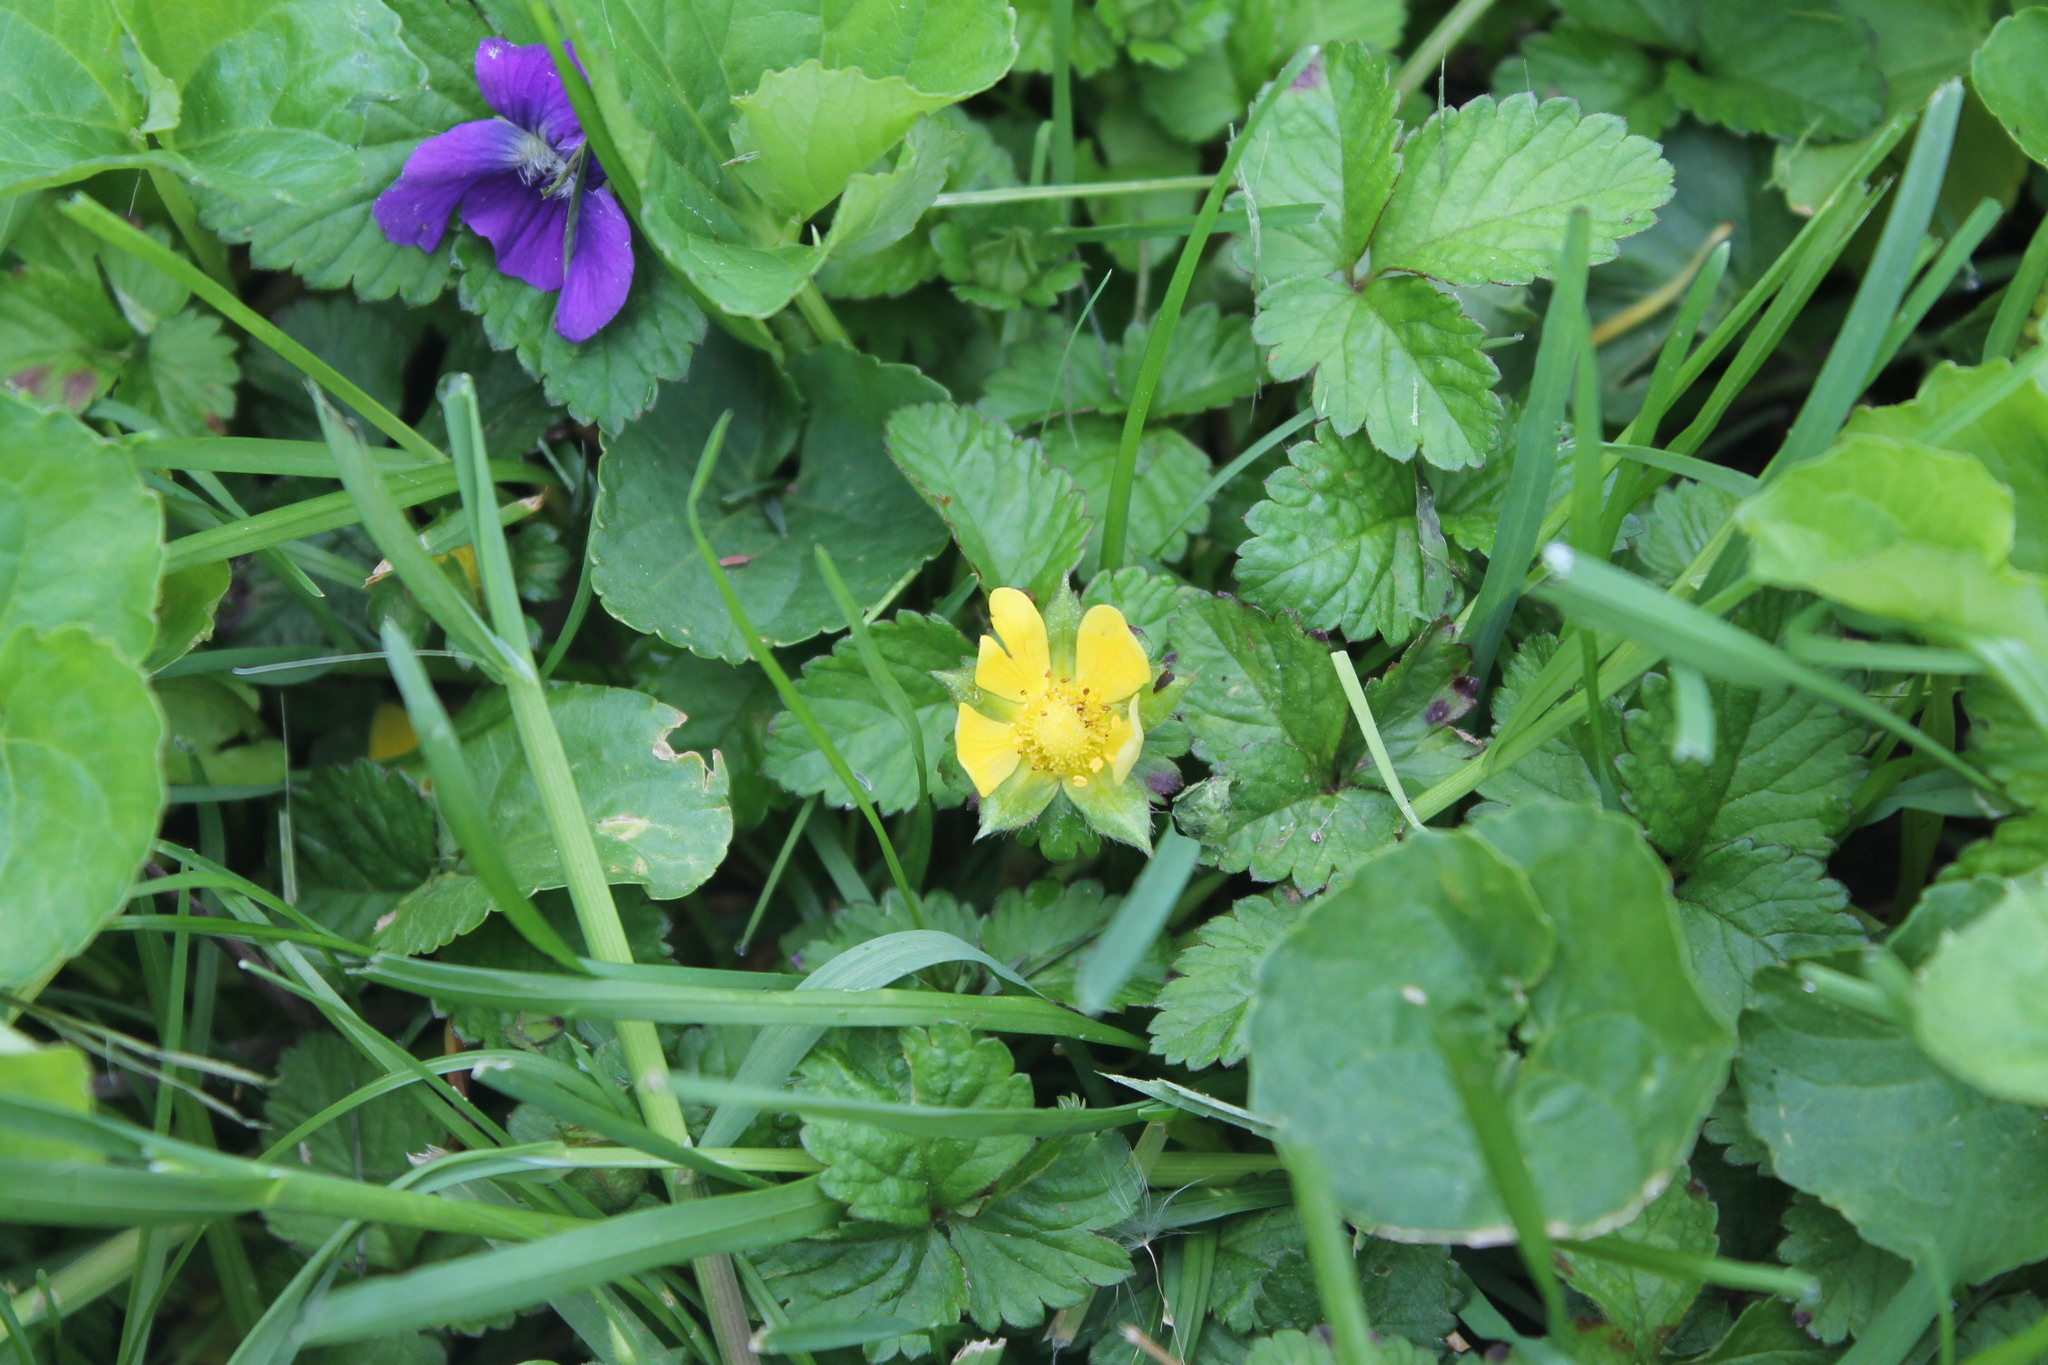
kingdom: Plantae
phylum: Tracheophyta
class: Magnoliopsida
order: Rosales
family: Rosaceae
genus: Potentilla
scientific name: Potentilla indica
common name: Yellow-flowered strawberry
